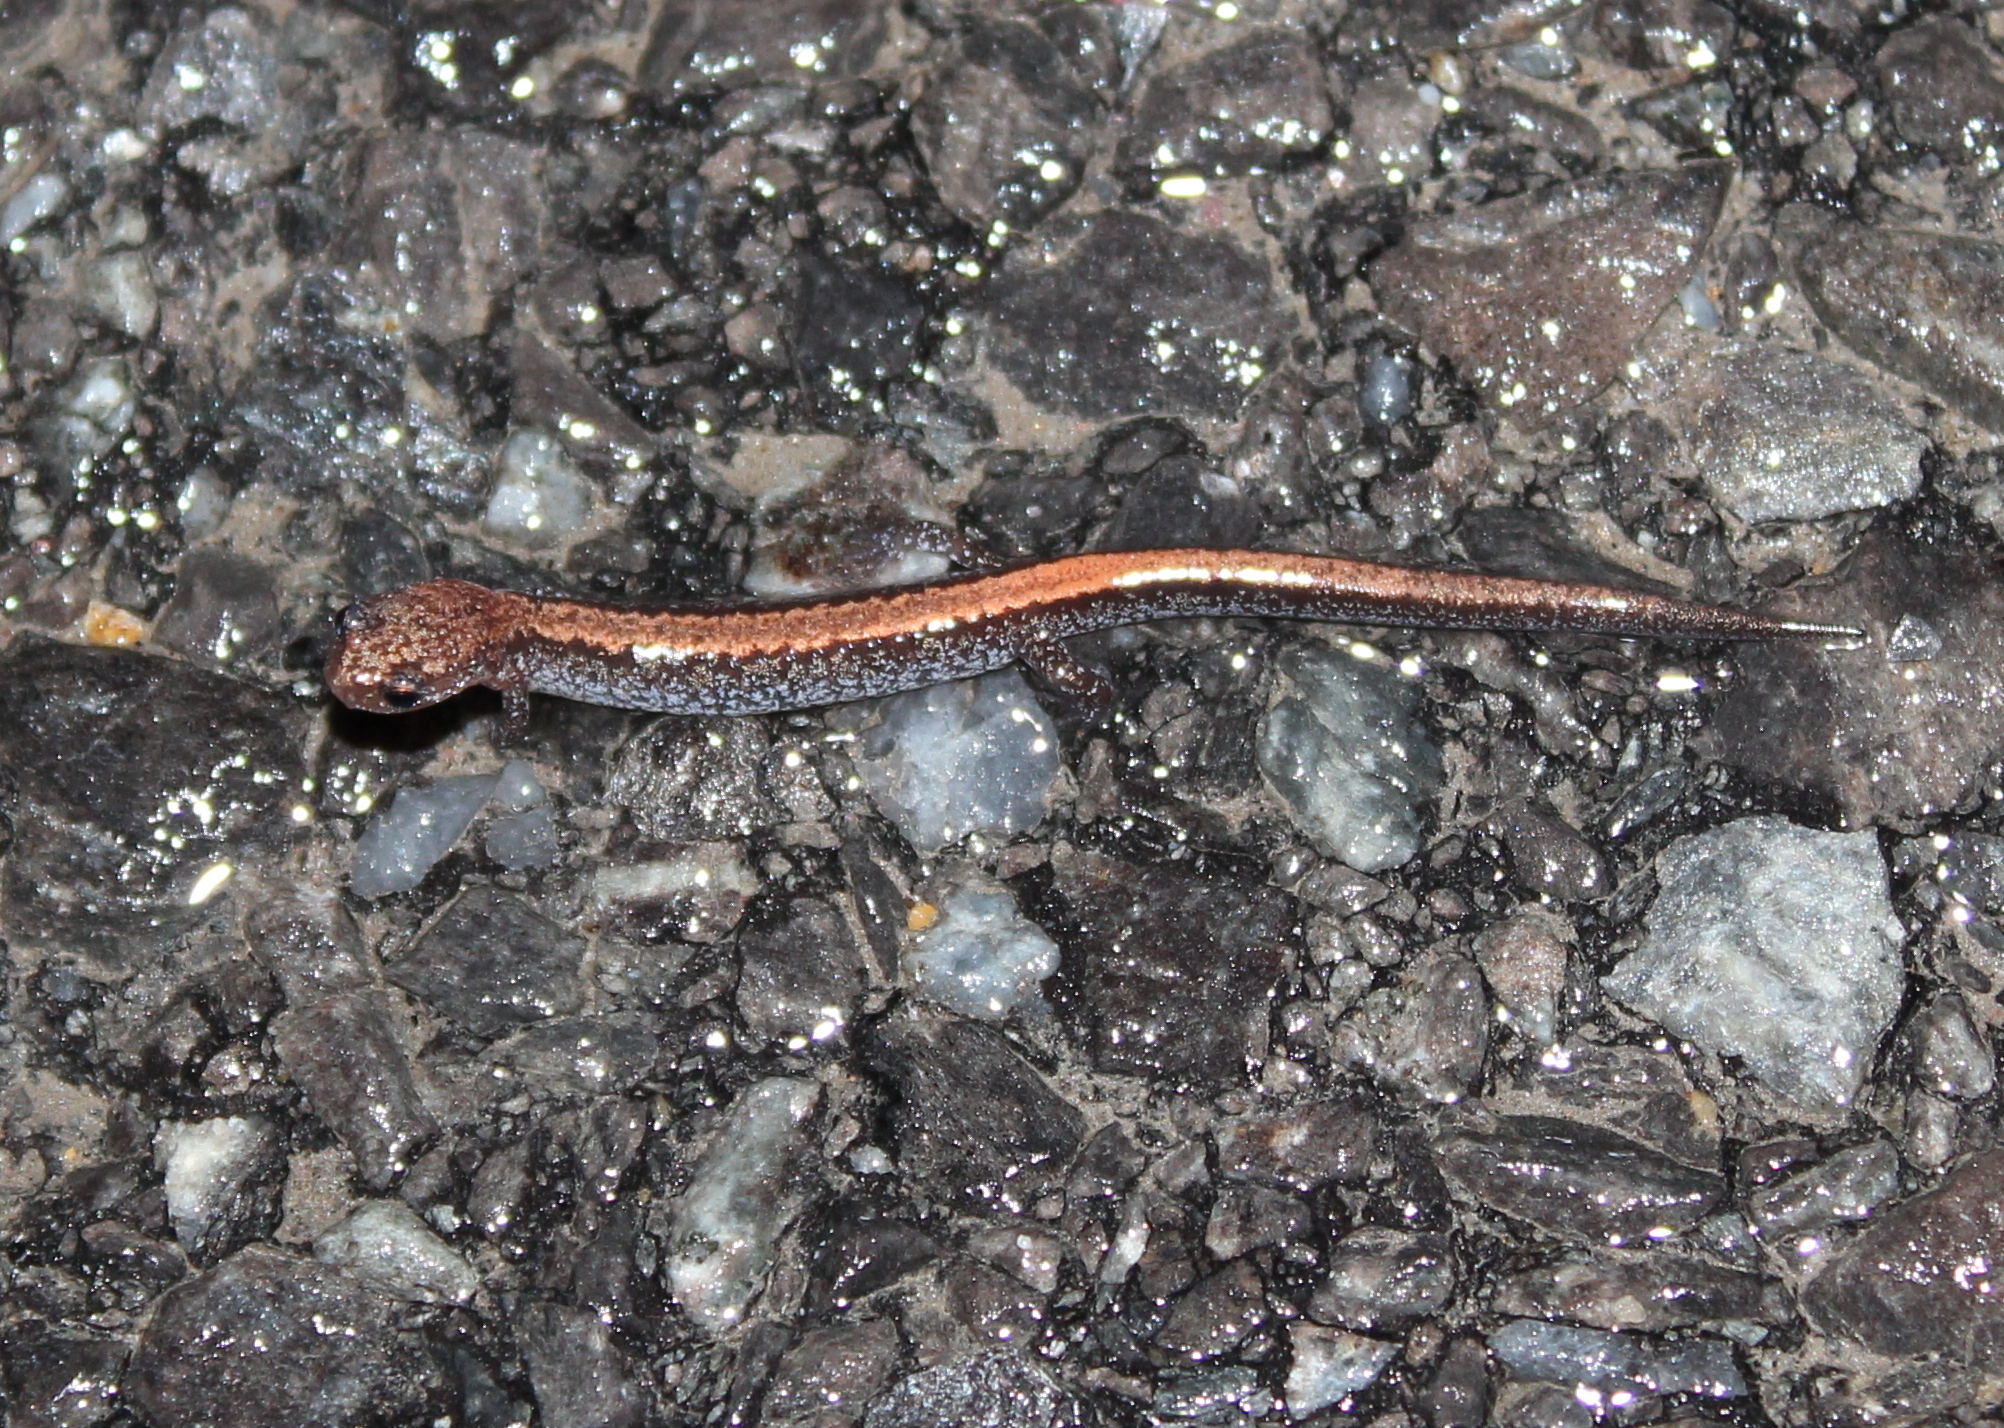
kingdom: Animalia
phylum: Chordata
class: Amphibia
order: Caudata
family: Plethodontidae
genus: Plethodon
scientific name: Plethodon cinereus
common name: Redback salamander
